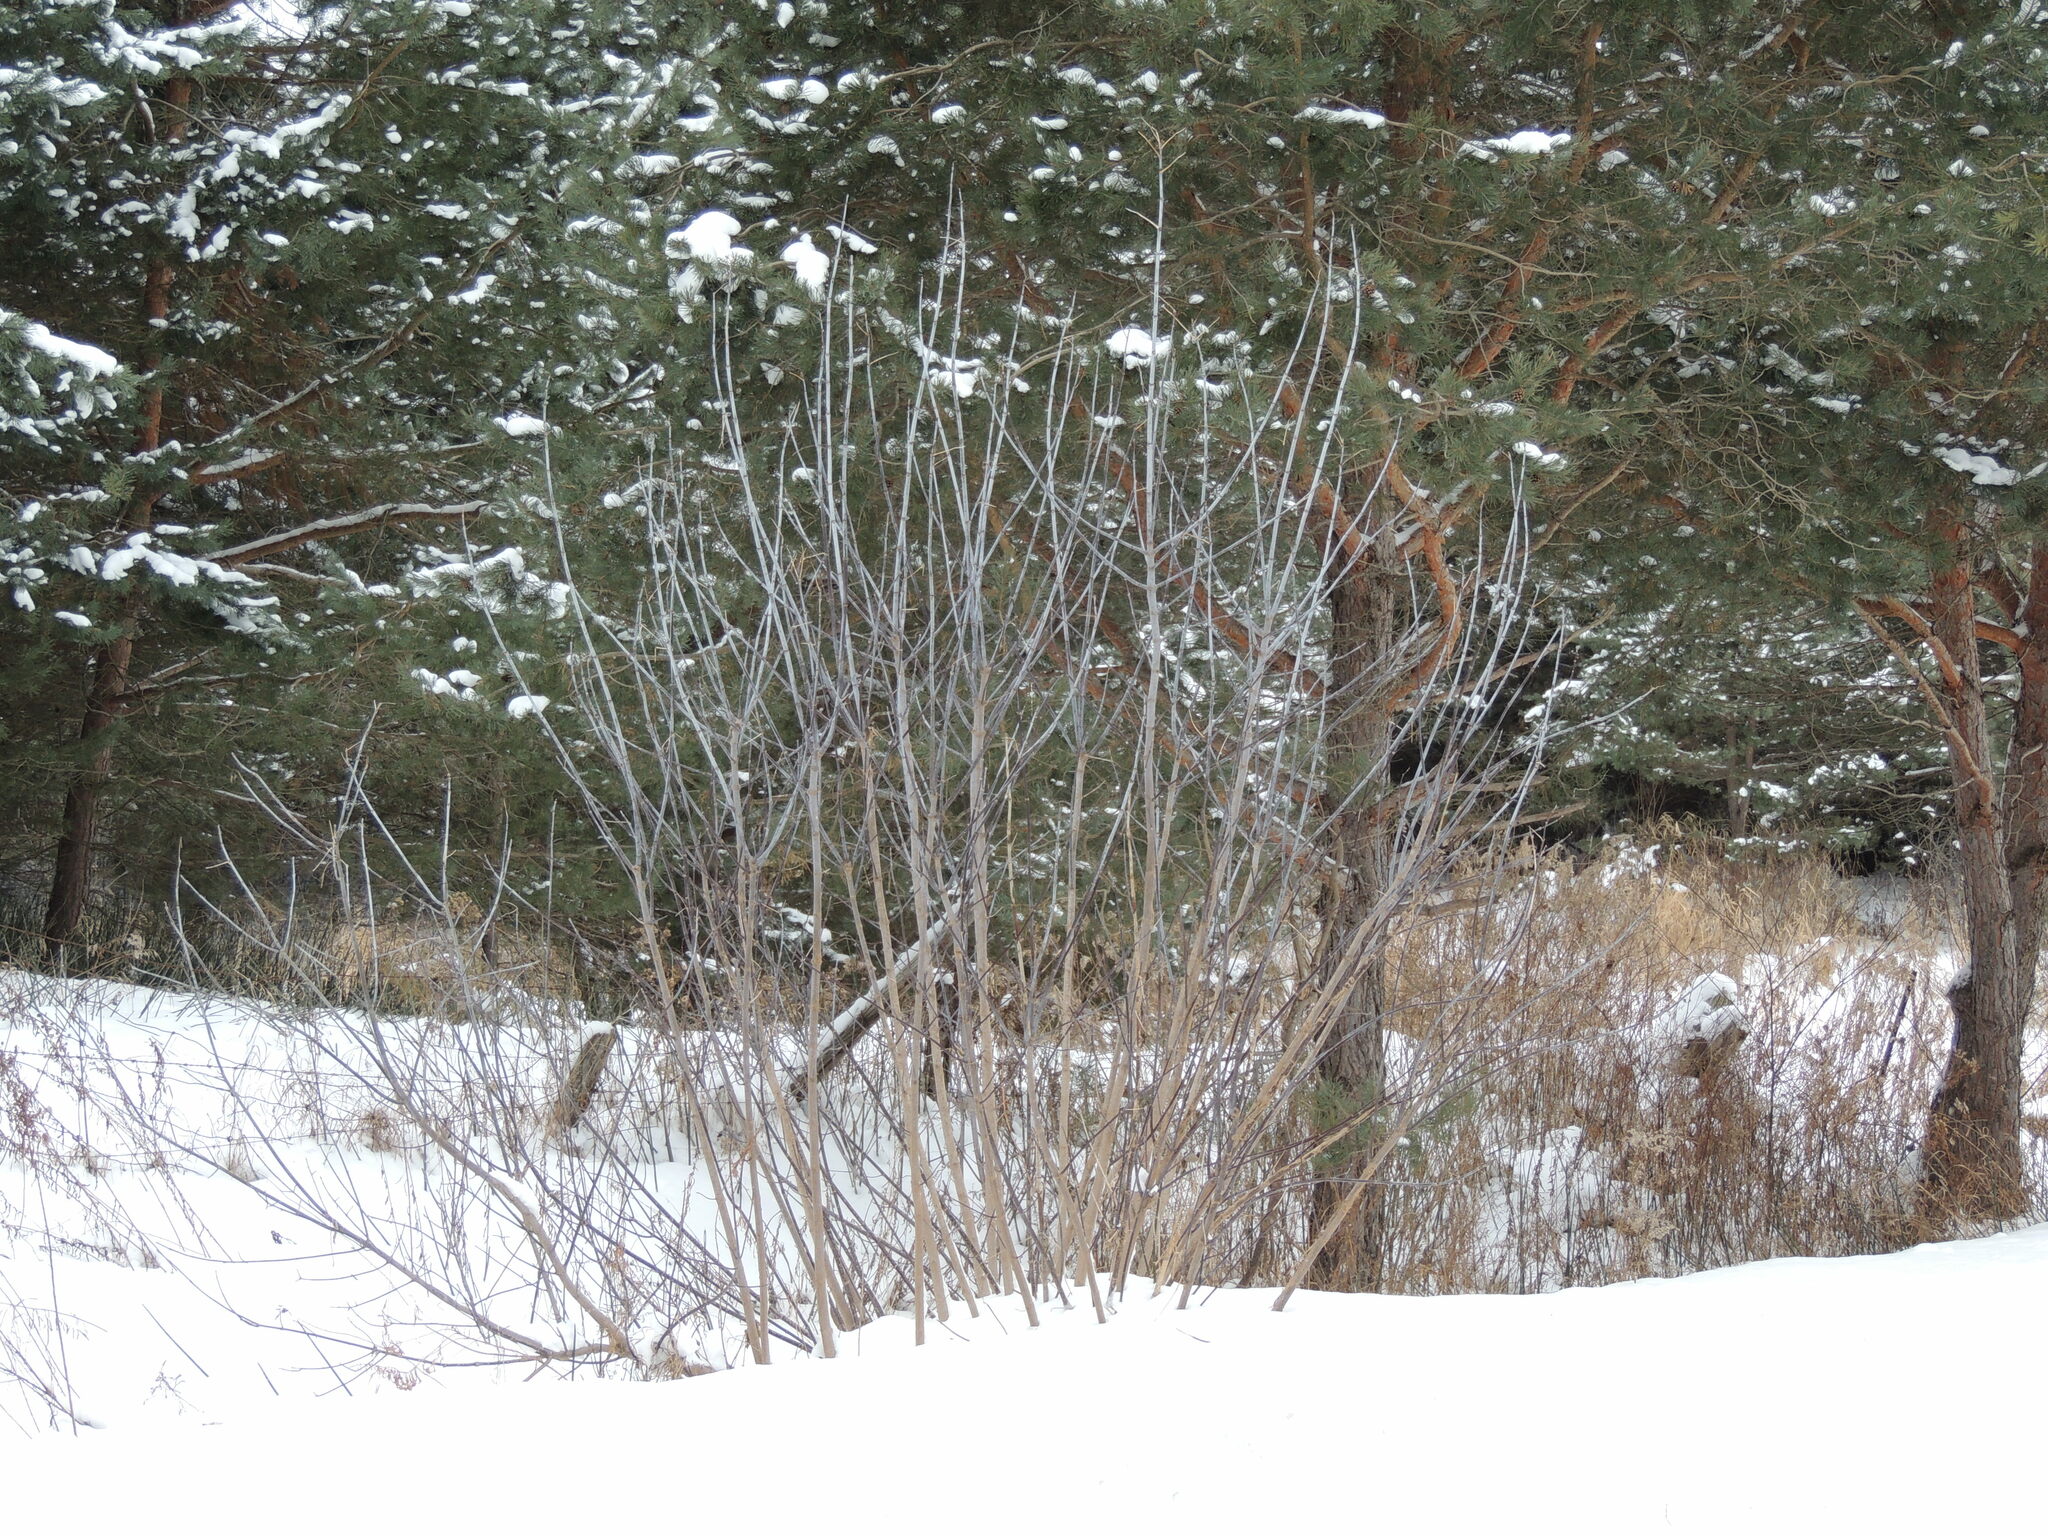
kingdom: Plantae
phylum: Tracheophyta
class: Magnoliopsida
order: Sapindales
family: Sapindaceae
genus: Acer
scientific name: Acer negundo
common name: Ashleaf maple
